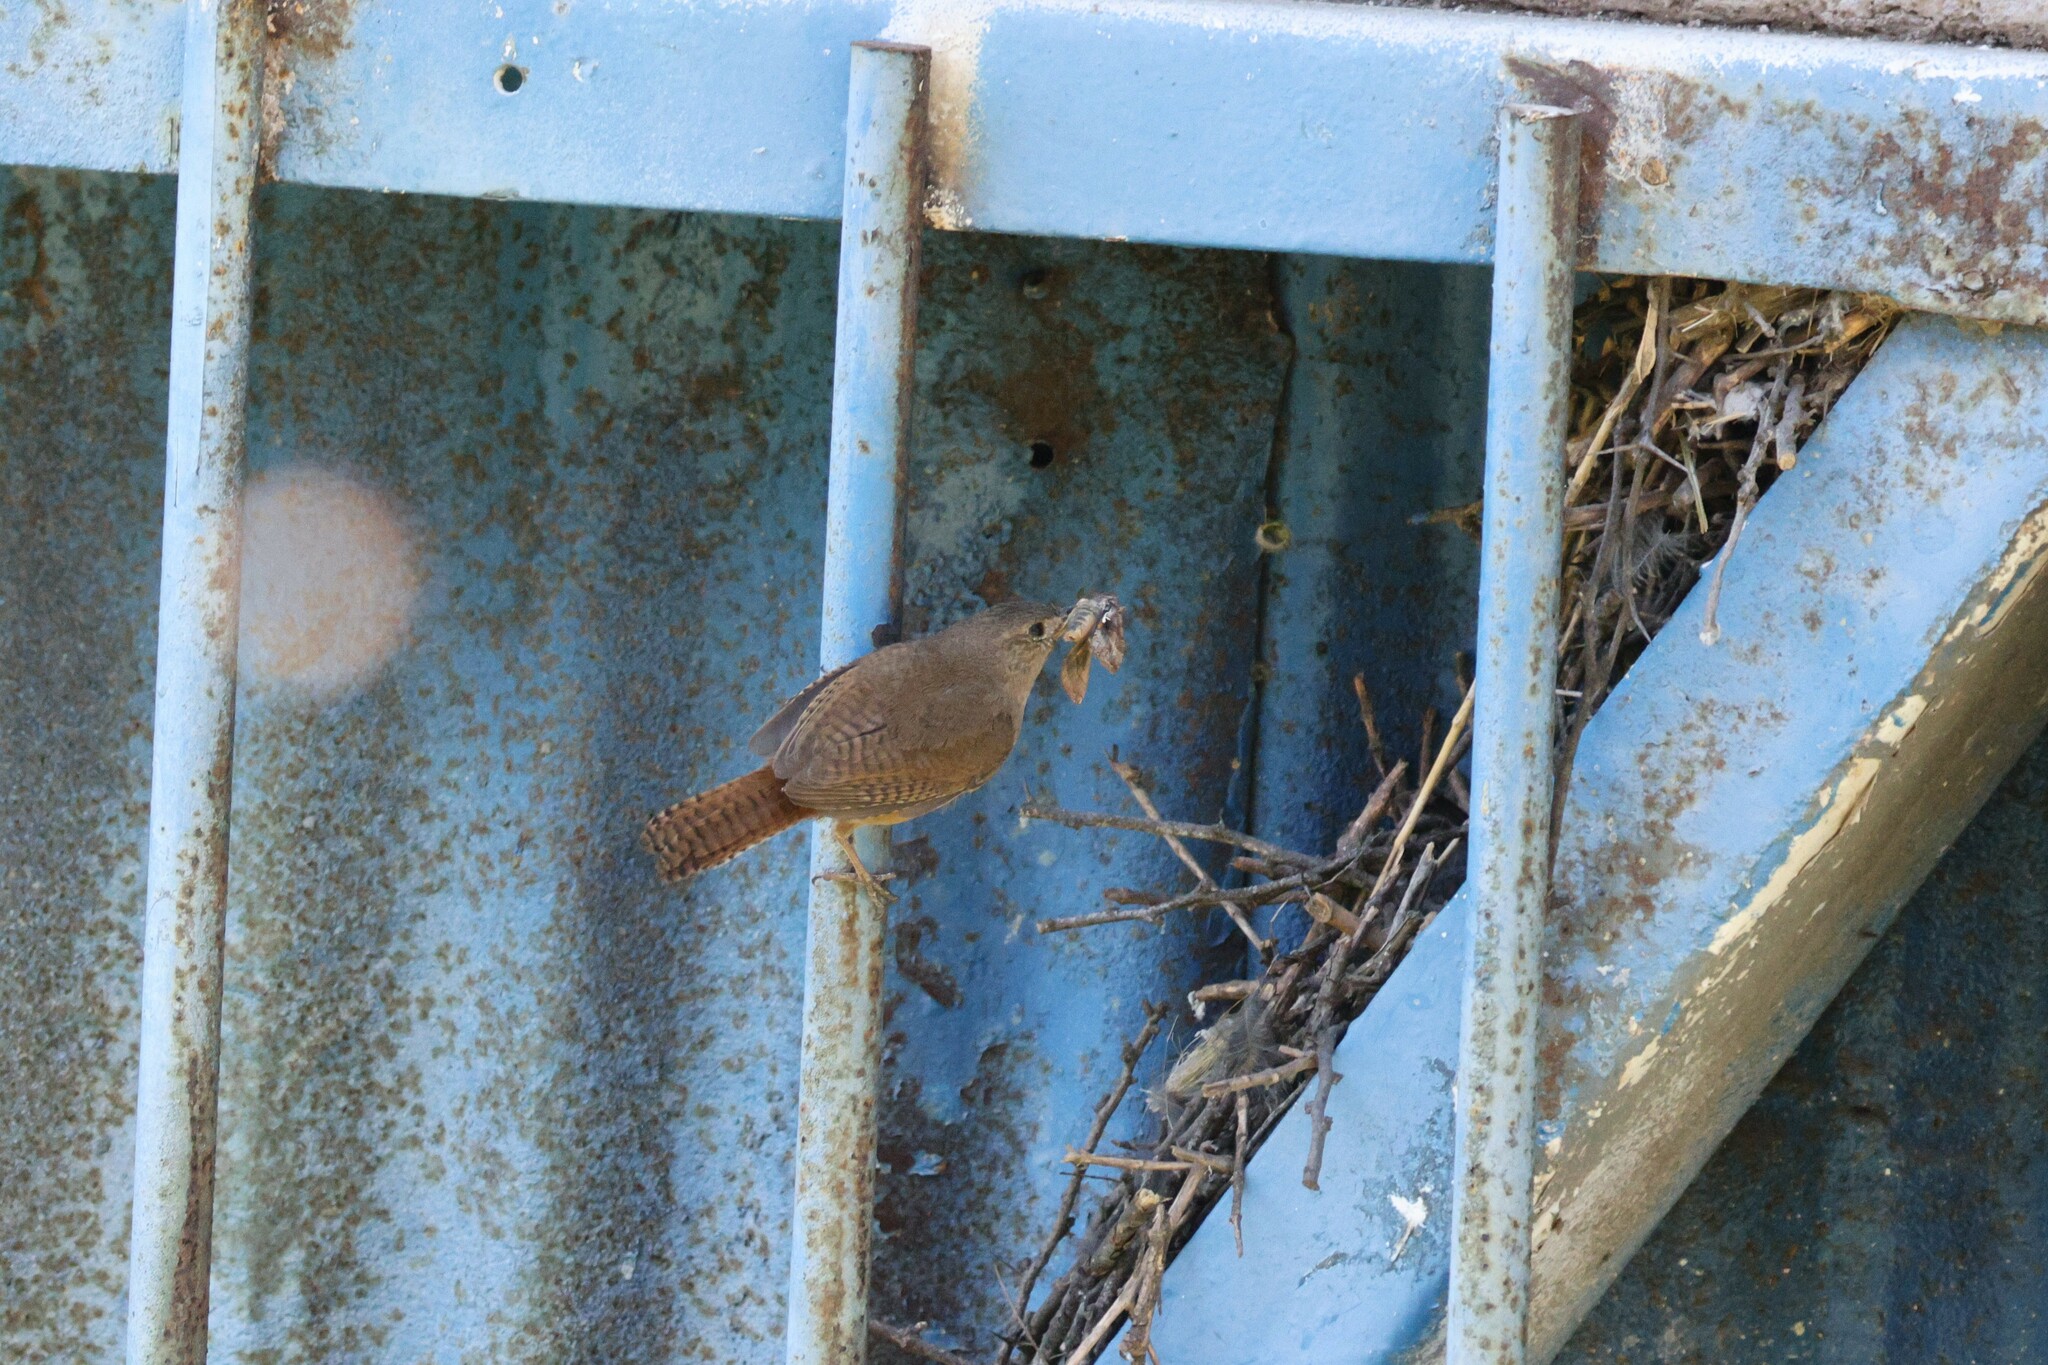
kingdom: Animalia
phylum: Chordata
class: Aves
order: Passeriformes
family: Troglodytidae
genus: Troglodytes
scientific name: Troglodytes aedon
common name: House wren
